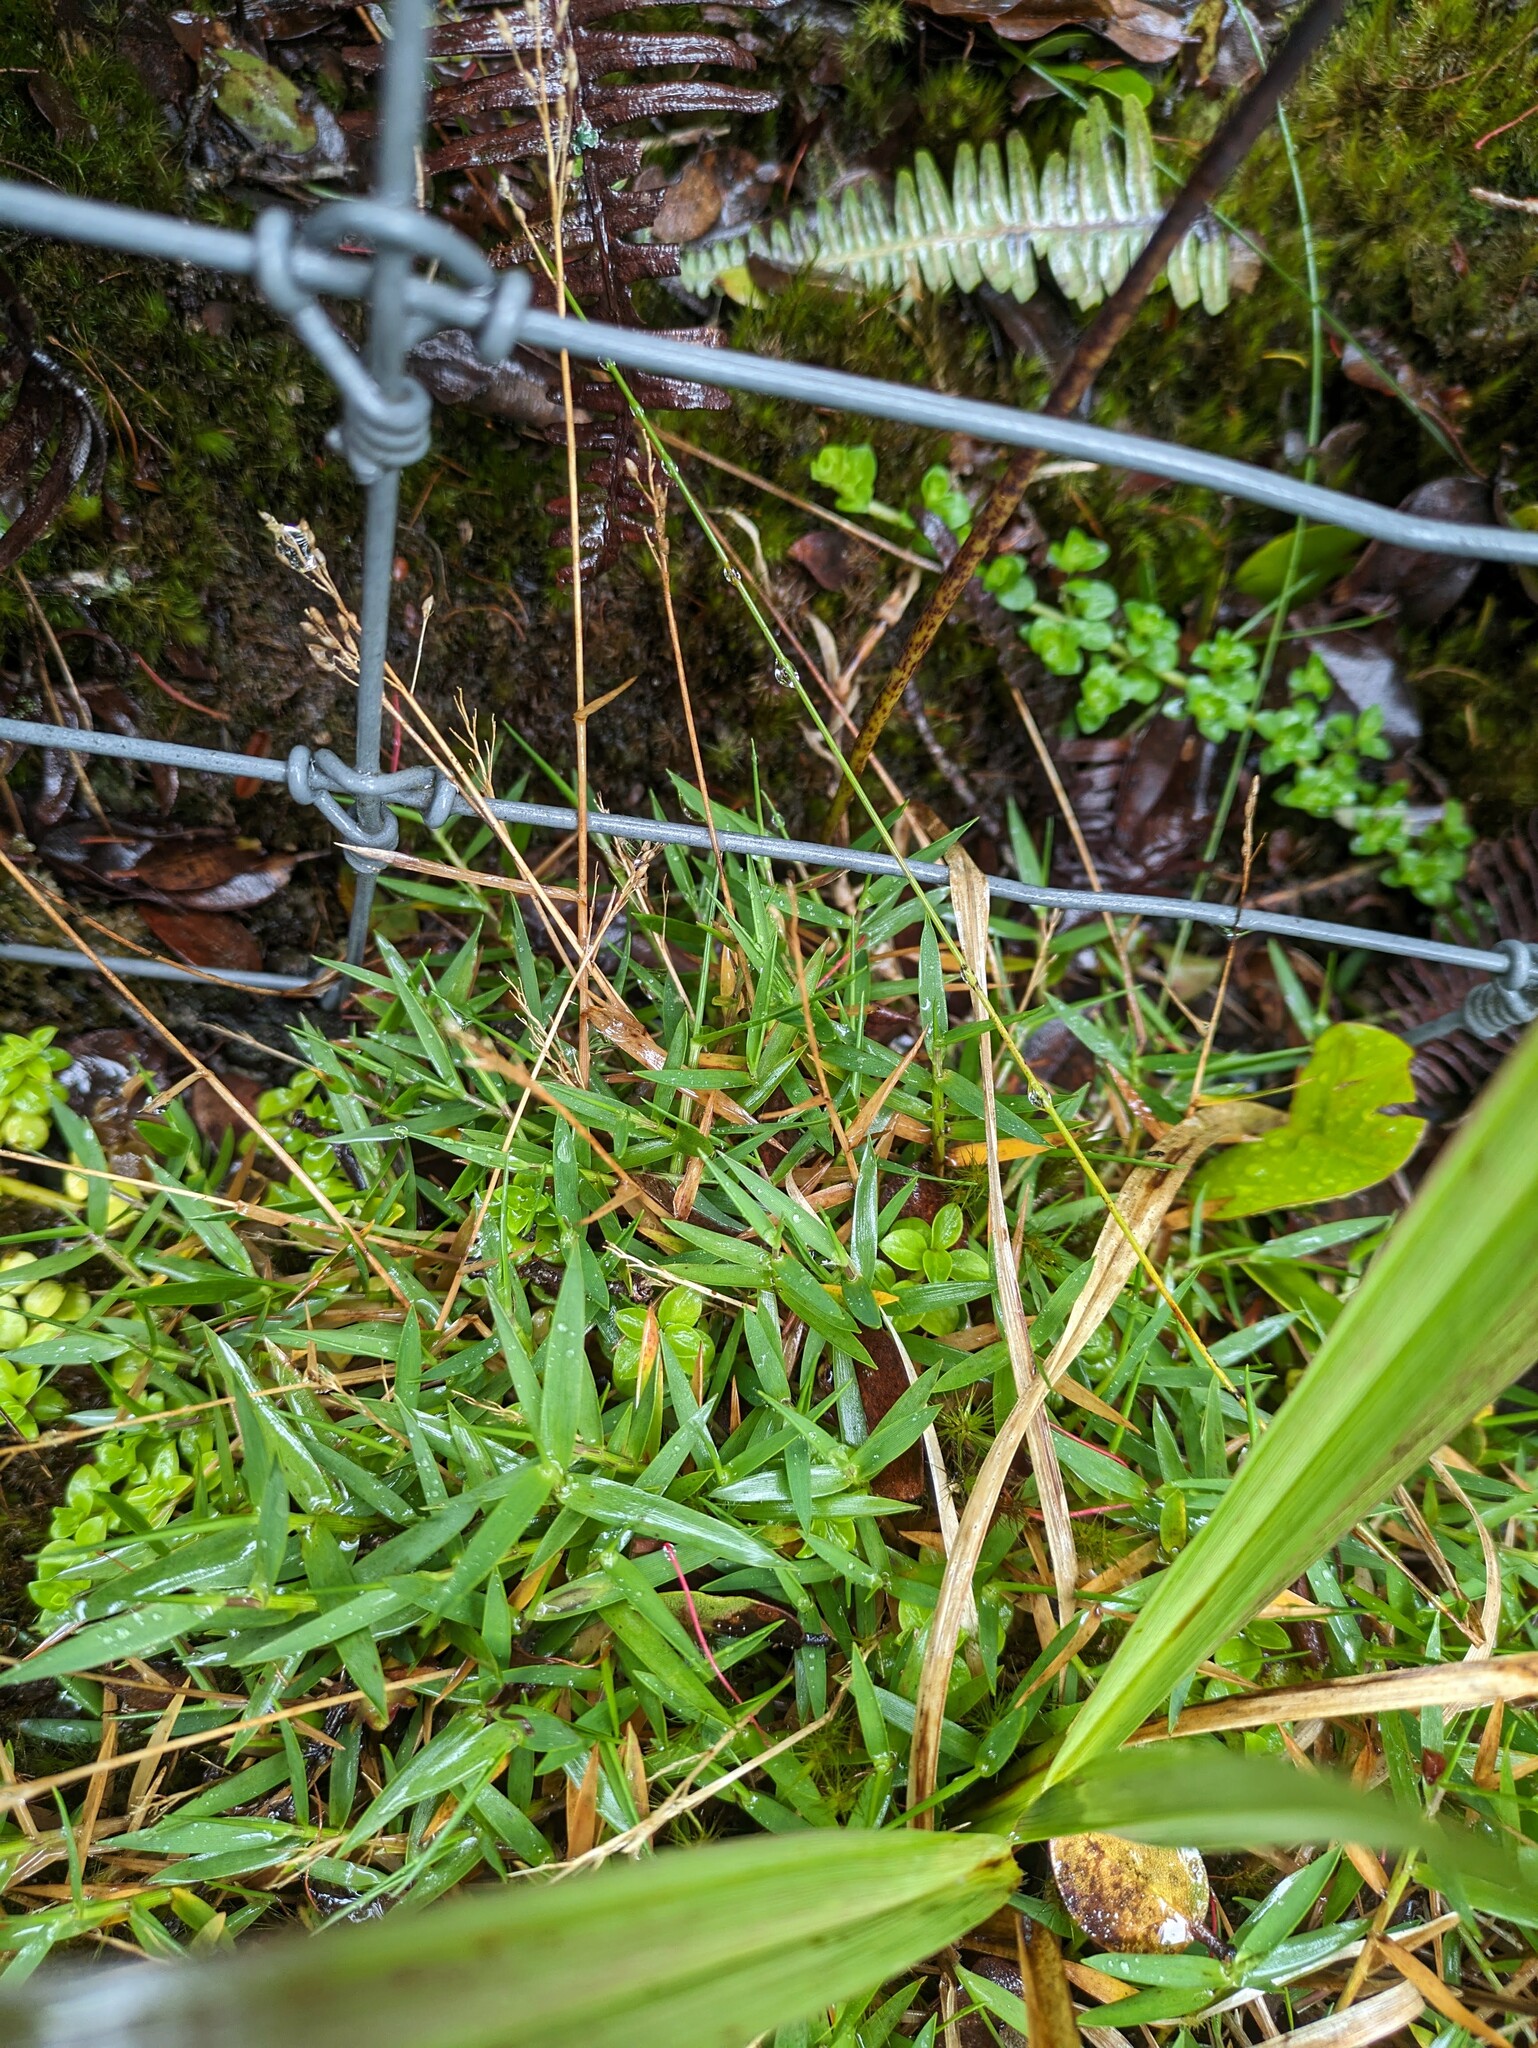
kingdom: Plantae
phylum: Tracheophyta
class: Liliopsida
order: Poales
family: Poaceae
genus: Dichanthelium
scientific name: Dichanthelium cynodon
